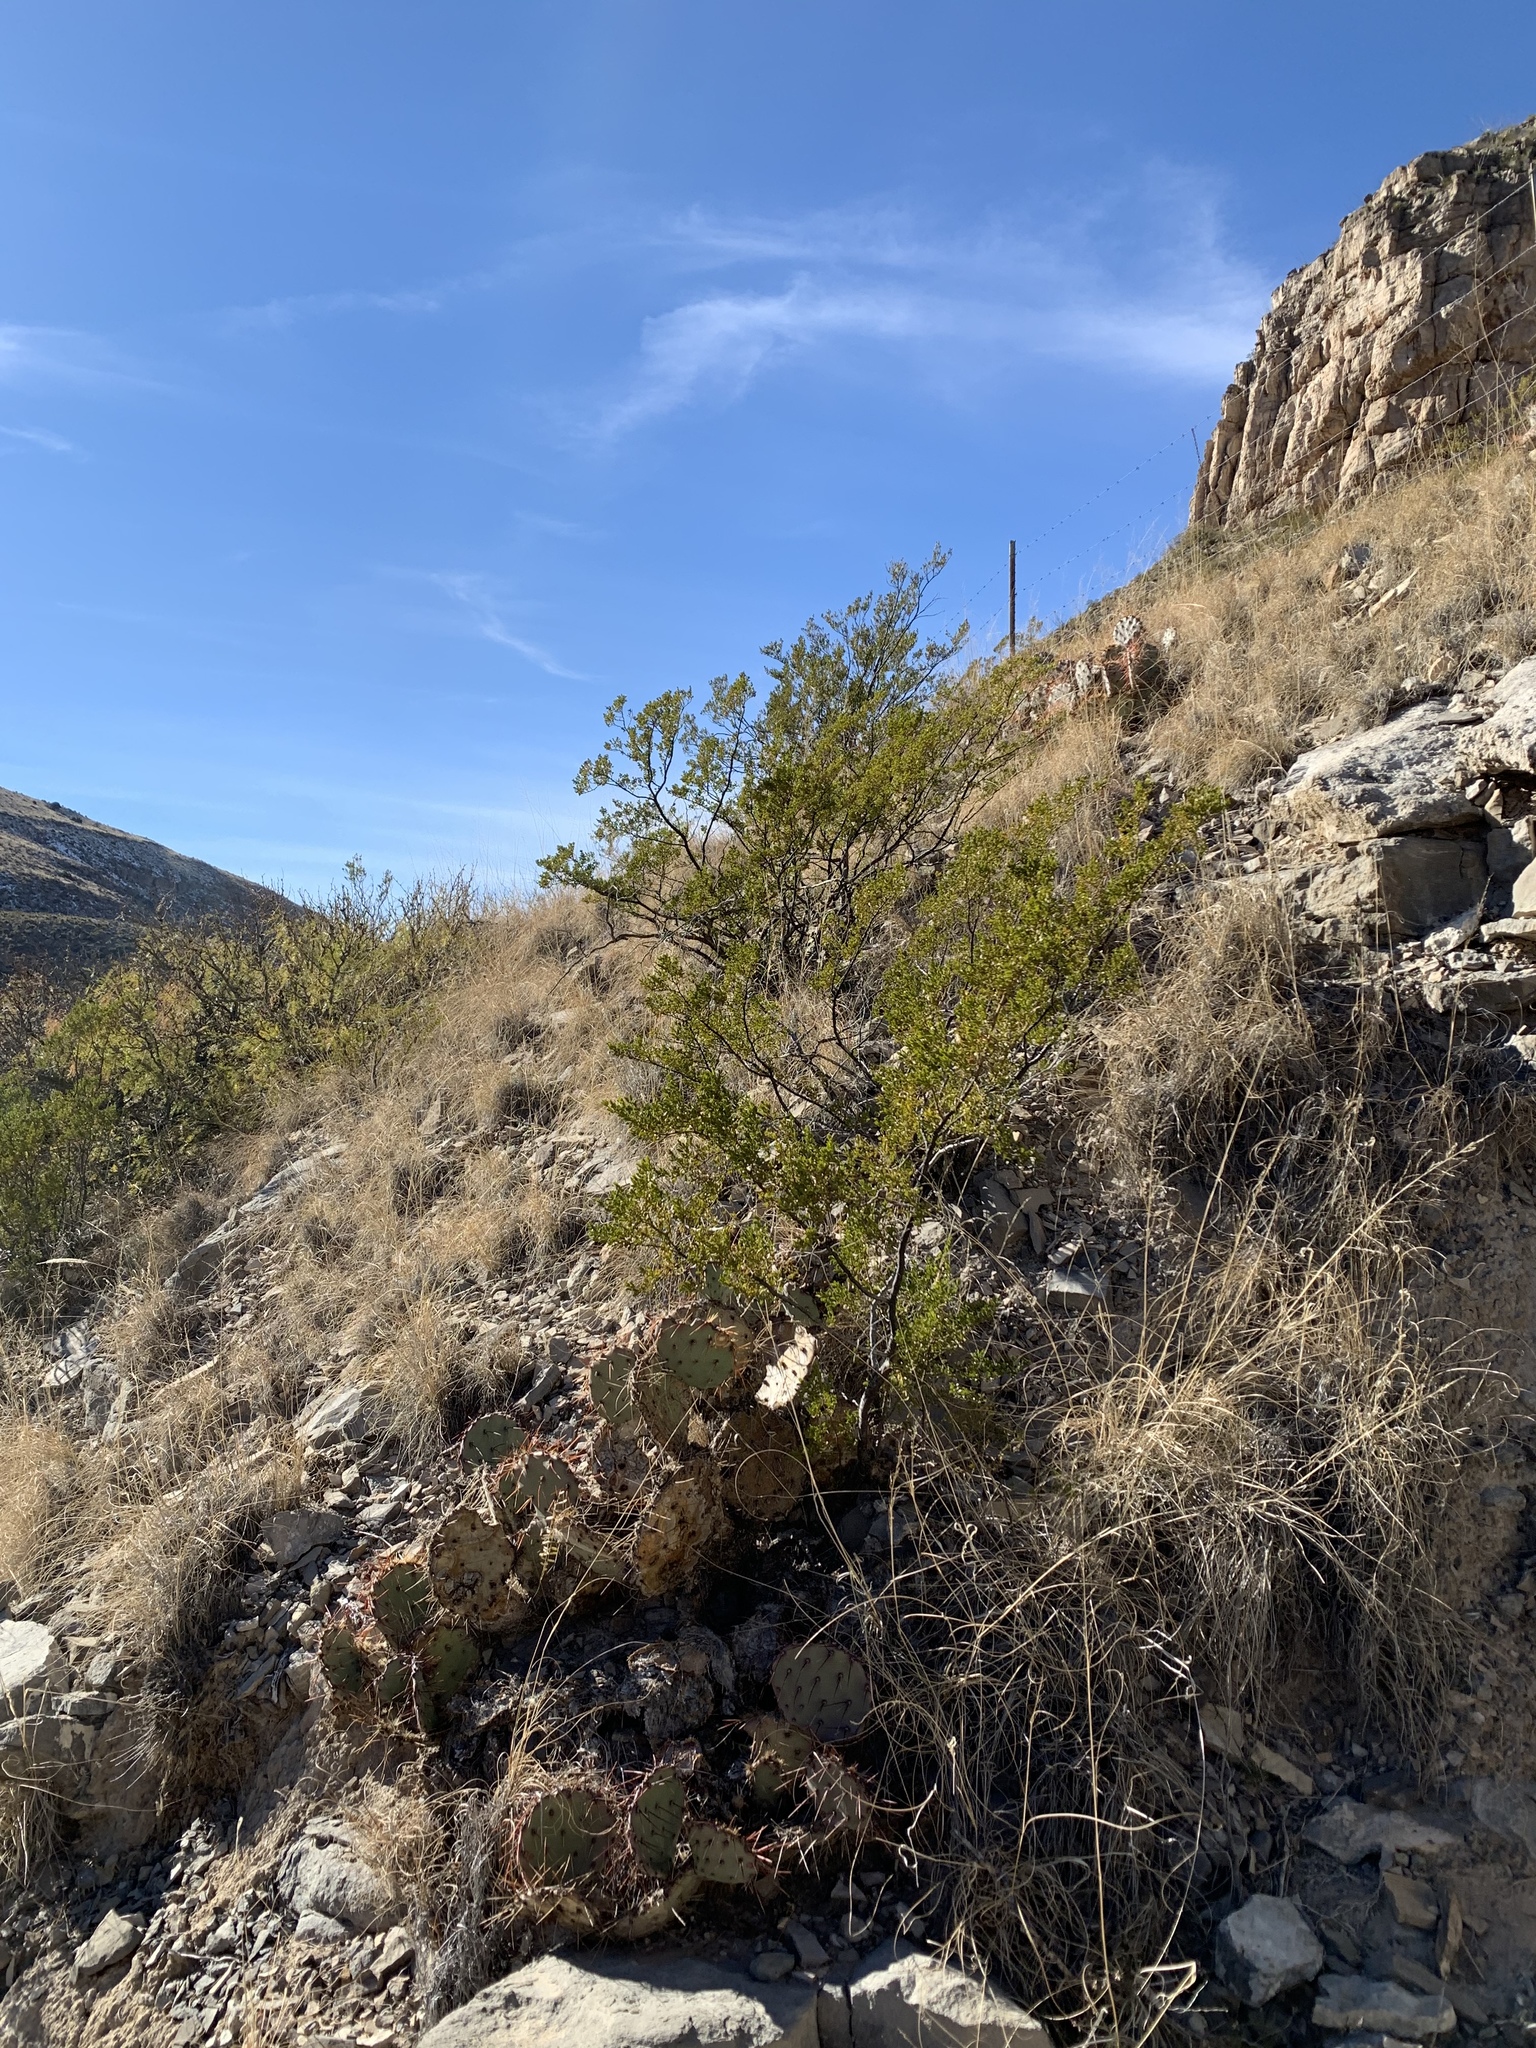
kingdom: Plantae
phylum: Tracheophyta
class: Magnoliopsida
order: Zygophyllales
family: Zygophyllaceae
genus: Larrea
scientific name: Larrea tridentata
